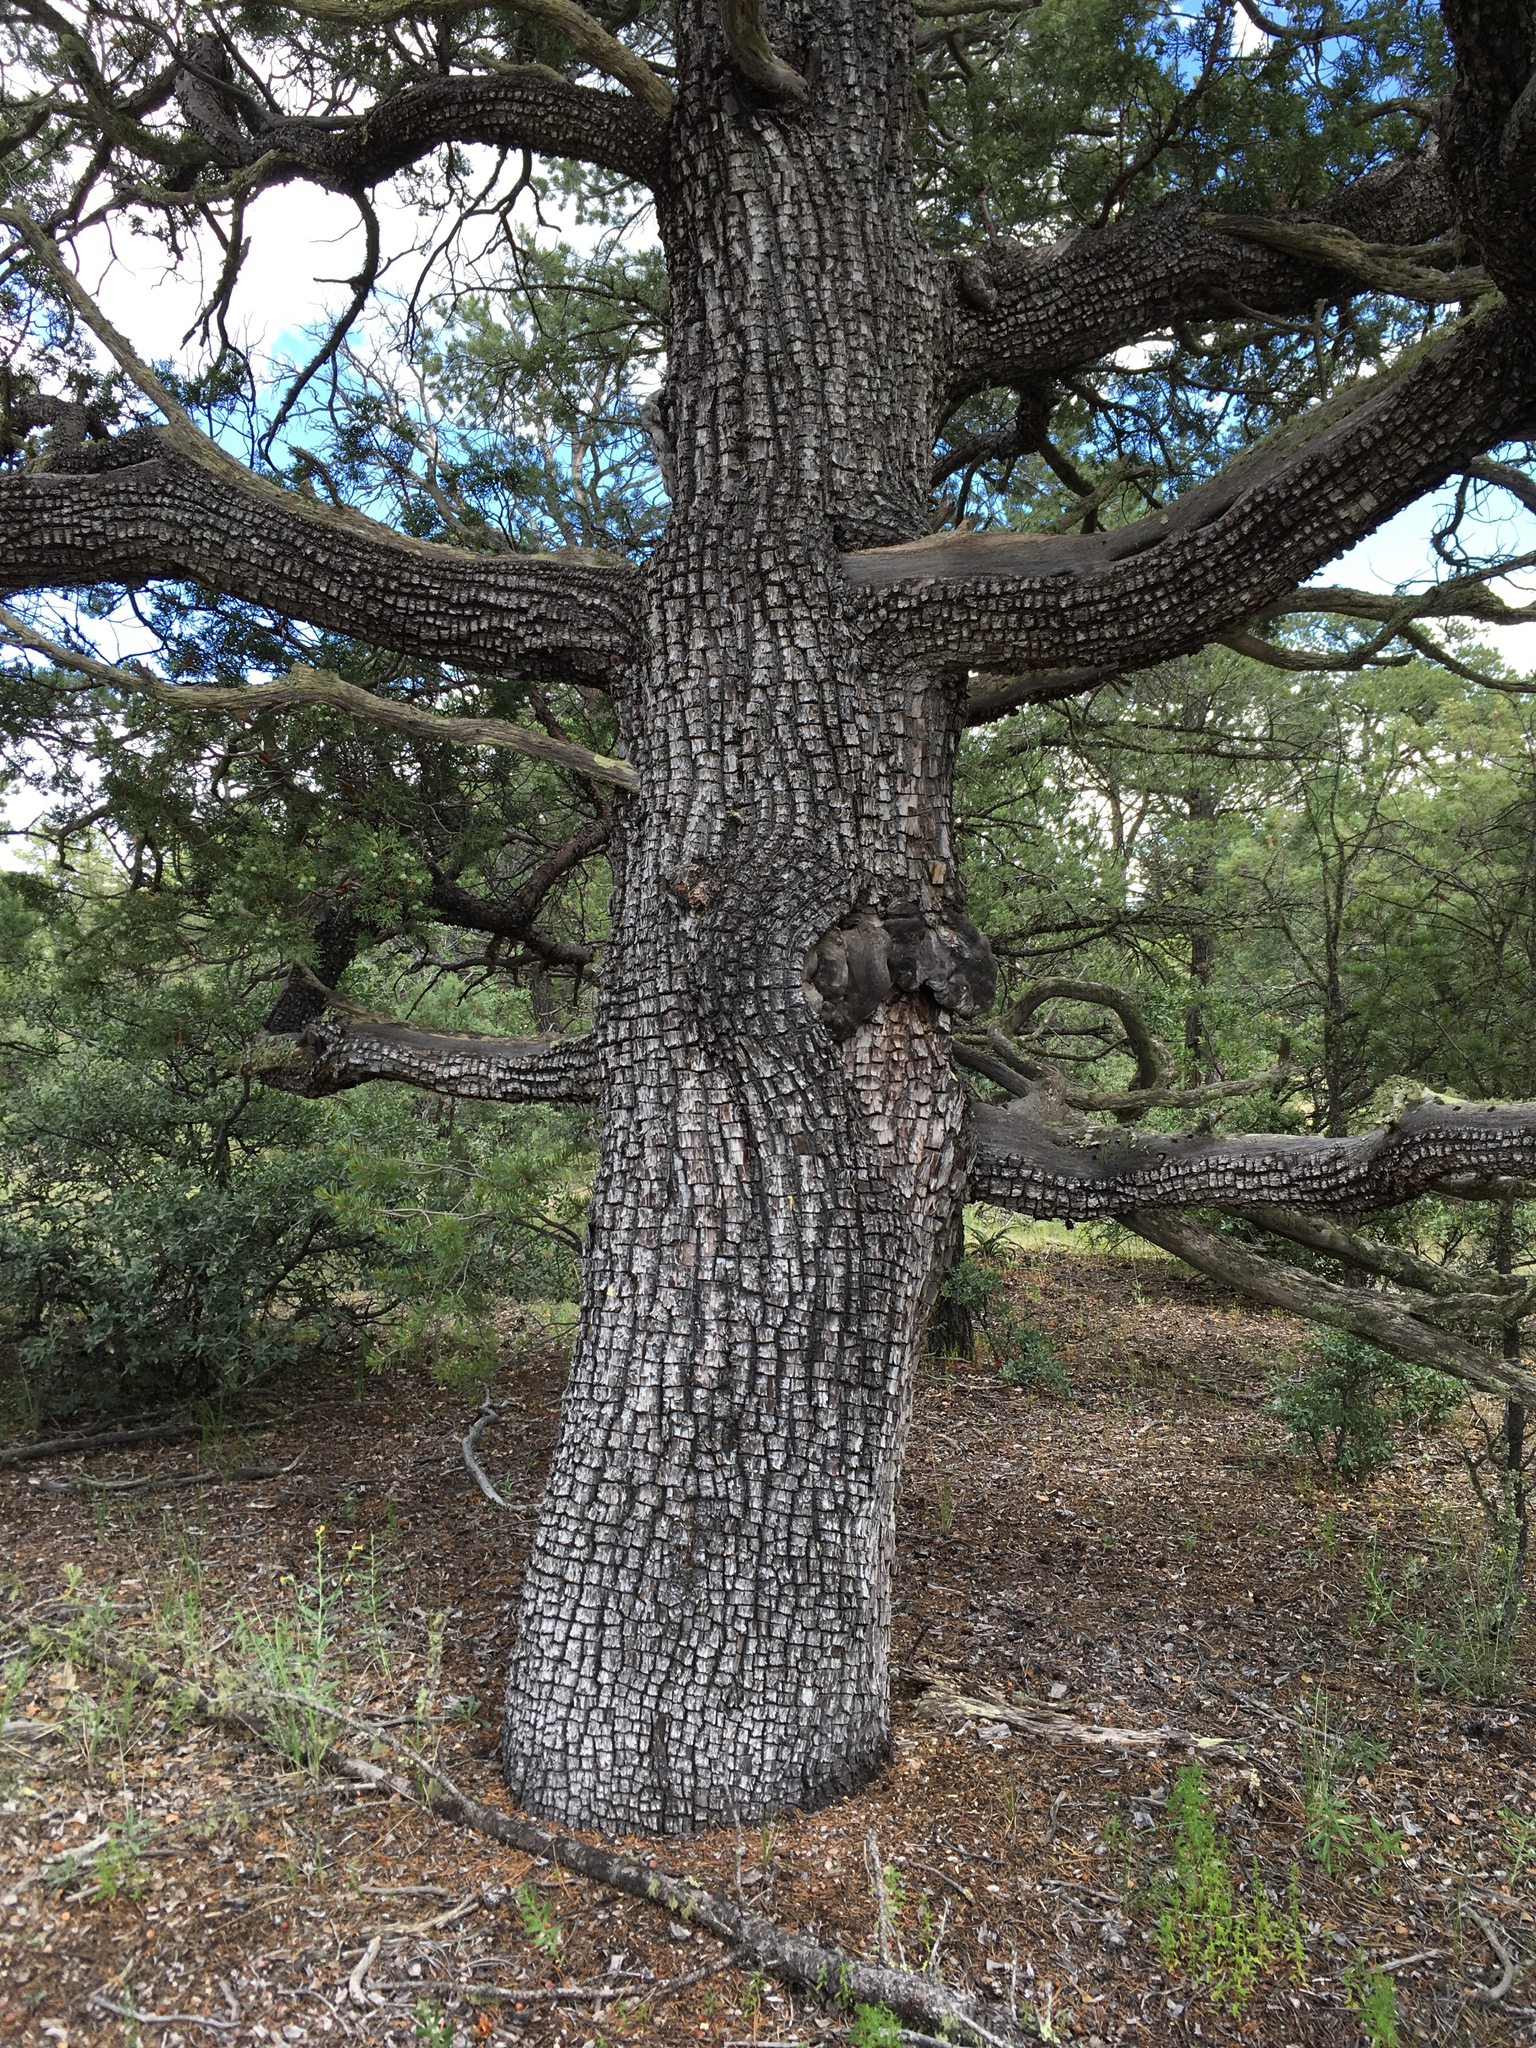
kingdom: Plantae
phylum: Tracheophyta
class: Pinopsida
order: Pinales
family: Cupressaceae
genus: Juniperus
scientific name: Juniperus deppeana
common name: Alligator juniper
